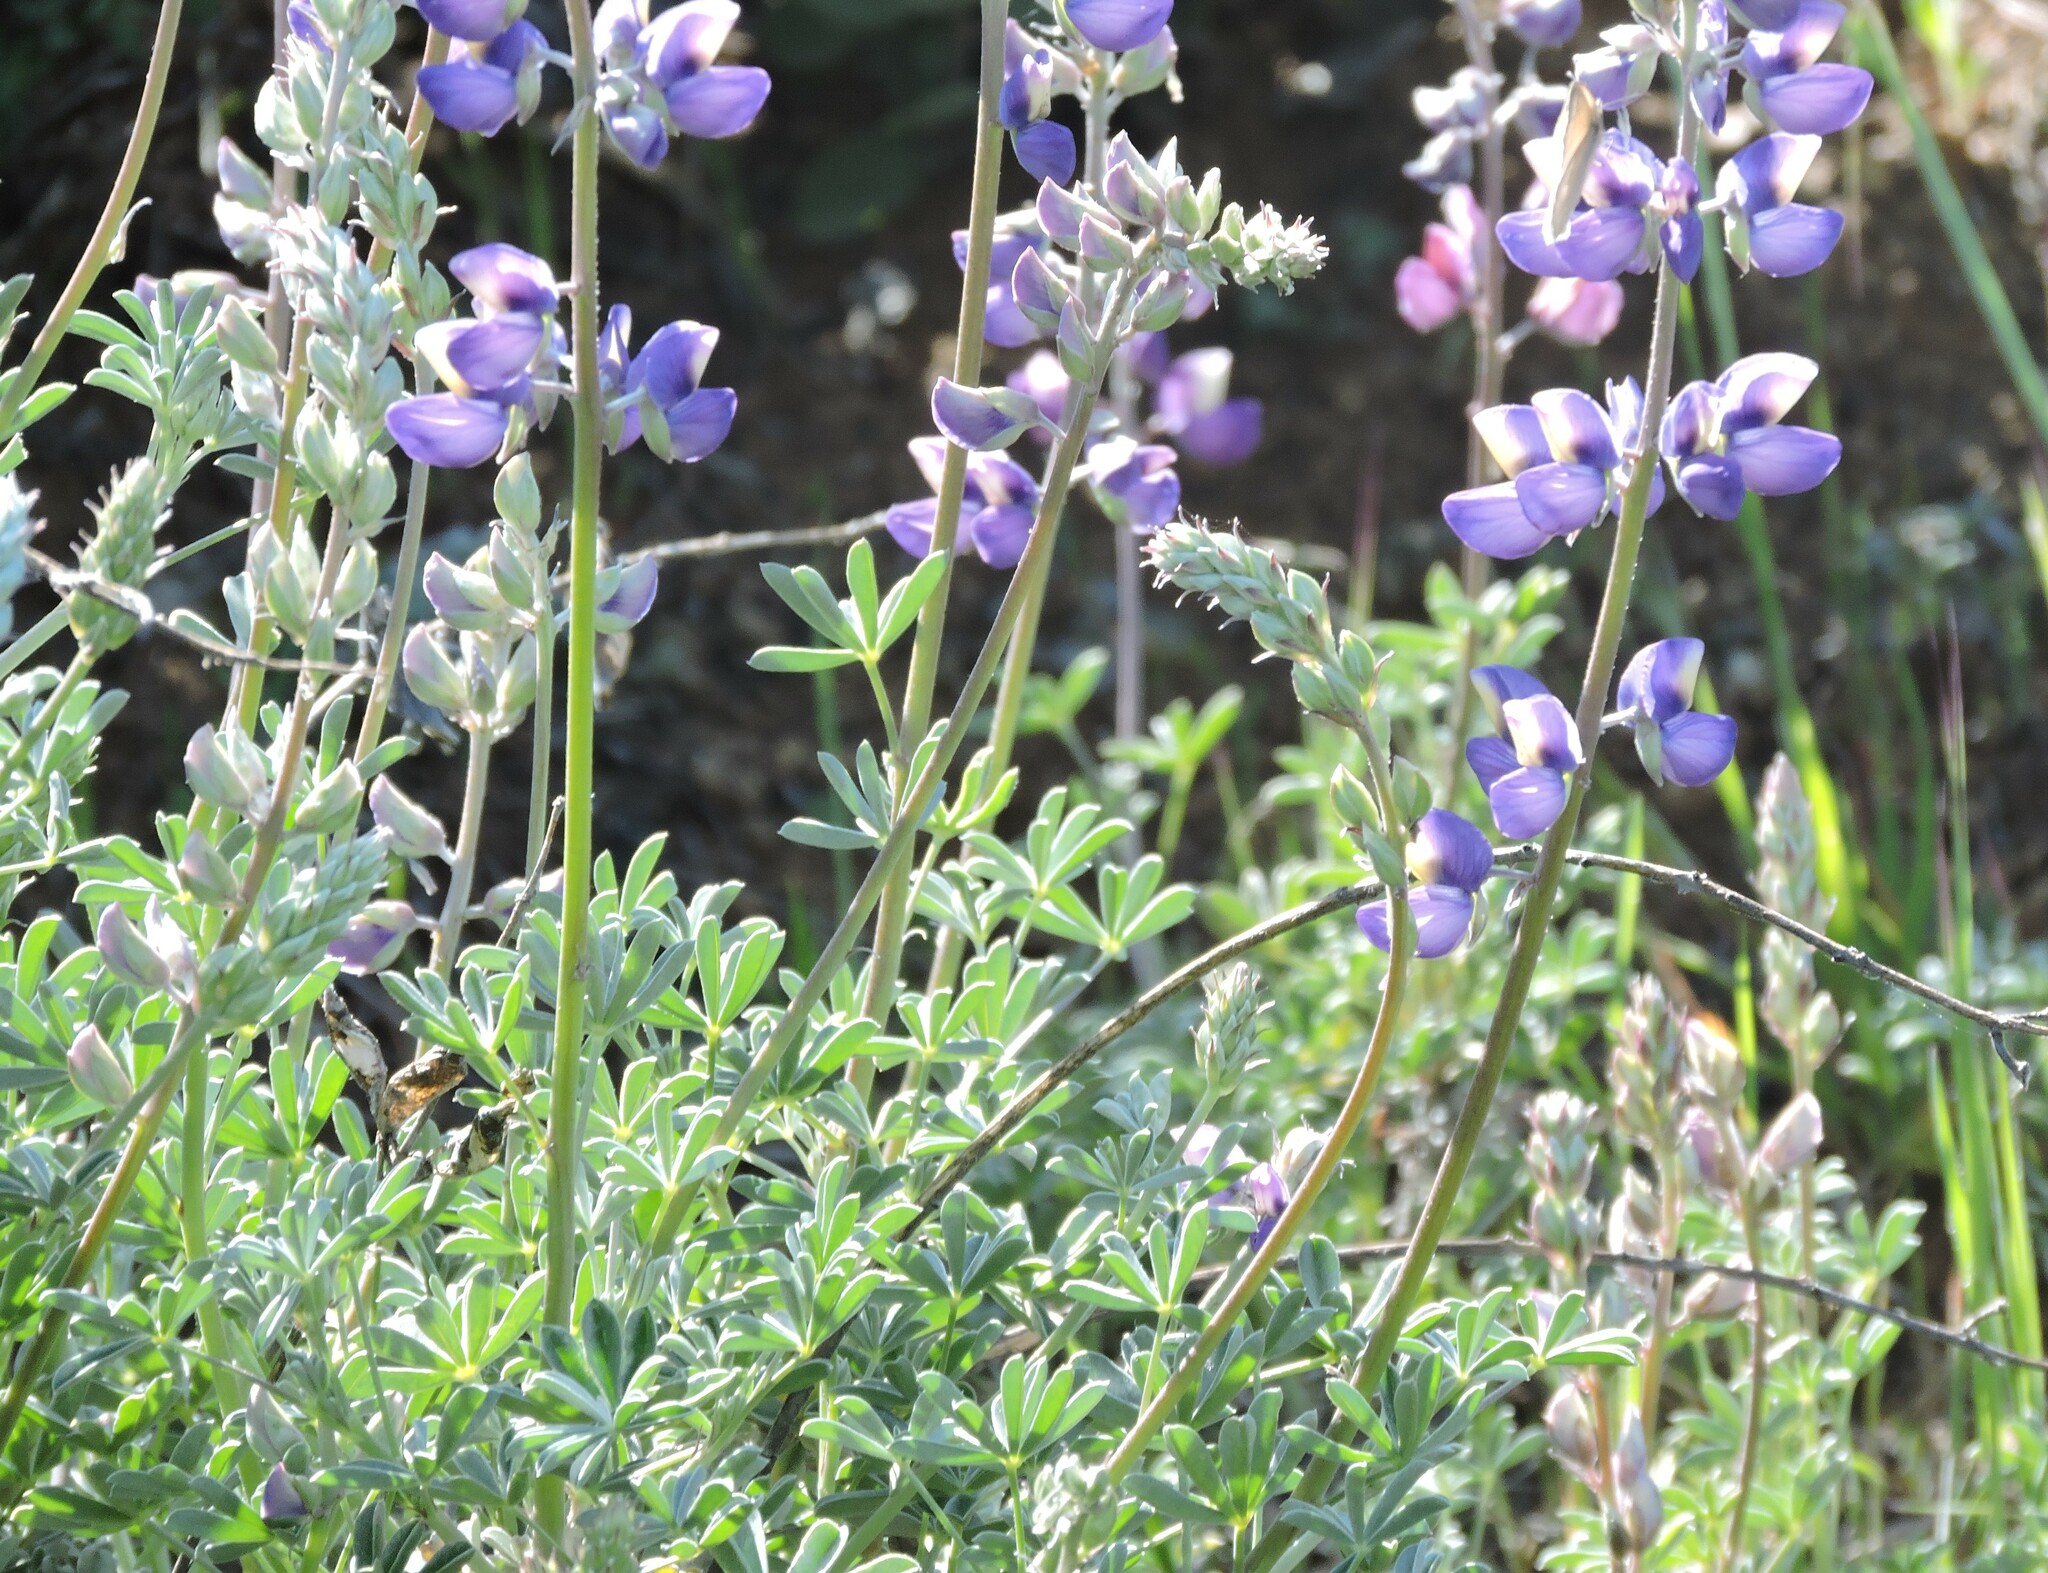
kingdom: Plantae
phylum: Tracheophyta
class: Magnoliopsida
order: Fabales
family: Fabaceae
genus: Lupinus
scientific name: Lupinus albifrons
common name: Foothill lupine
